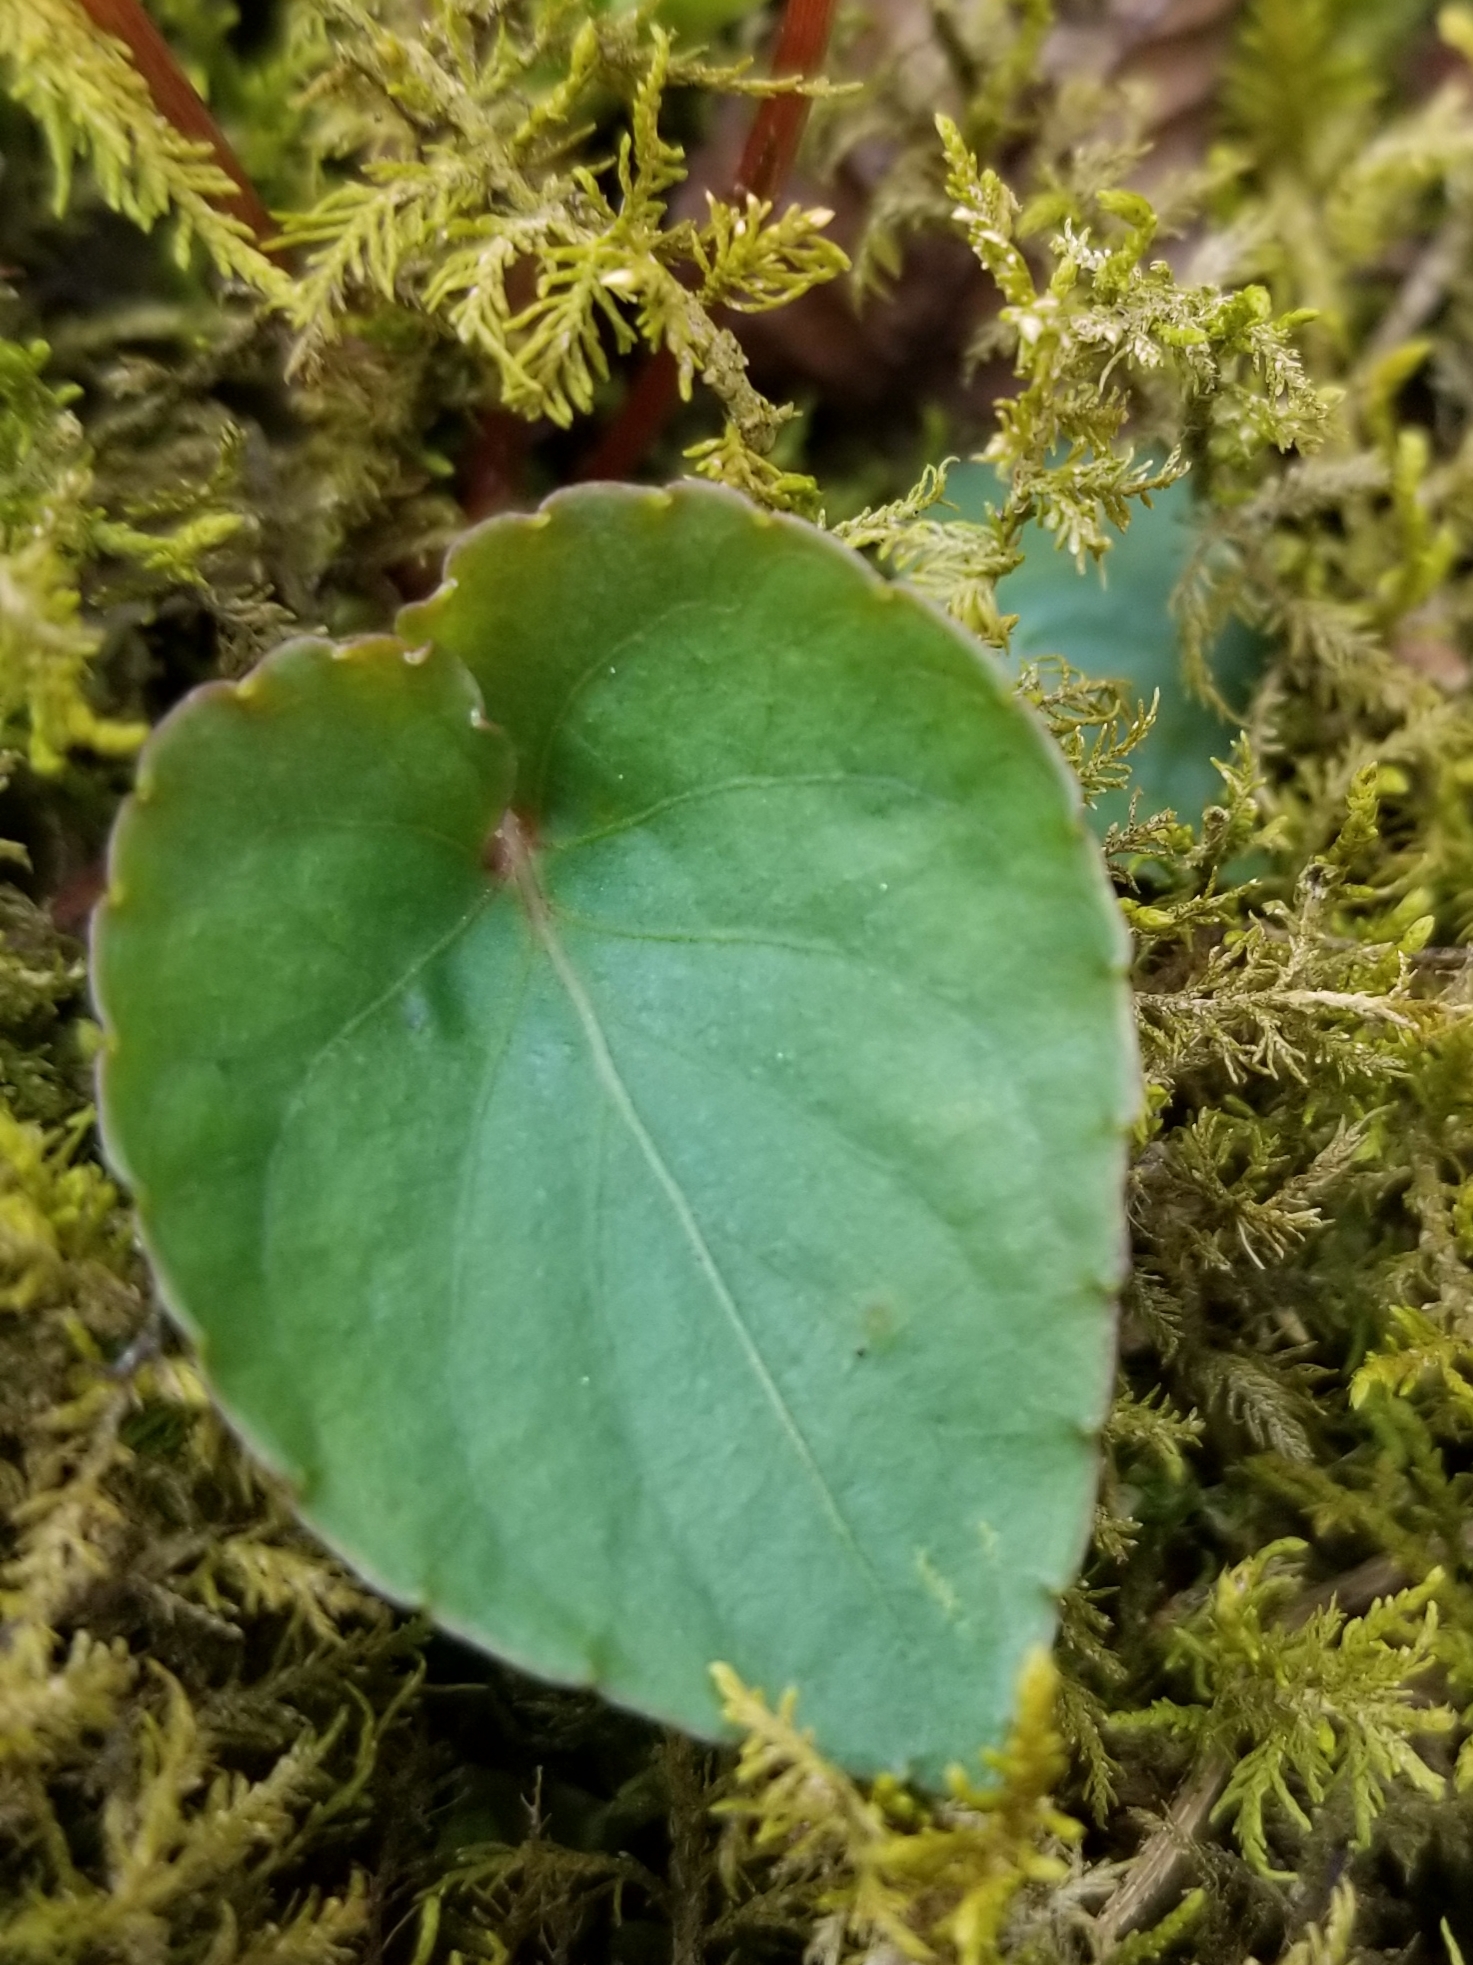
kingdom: Plantae
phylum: Tracheophyta
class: Magnoliopsida
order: Malpighiales
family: Violaceae
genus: Viola
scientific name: Viola blanda
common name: Sweet white violet
